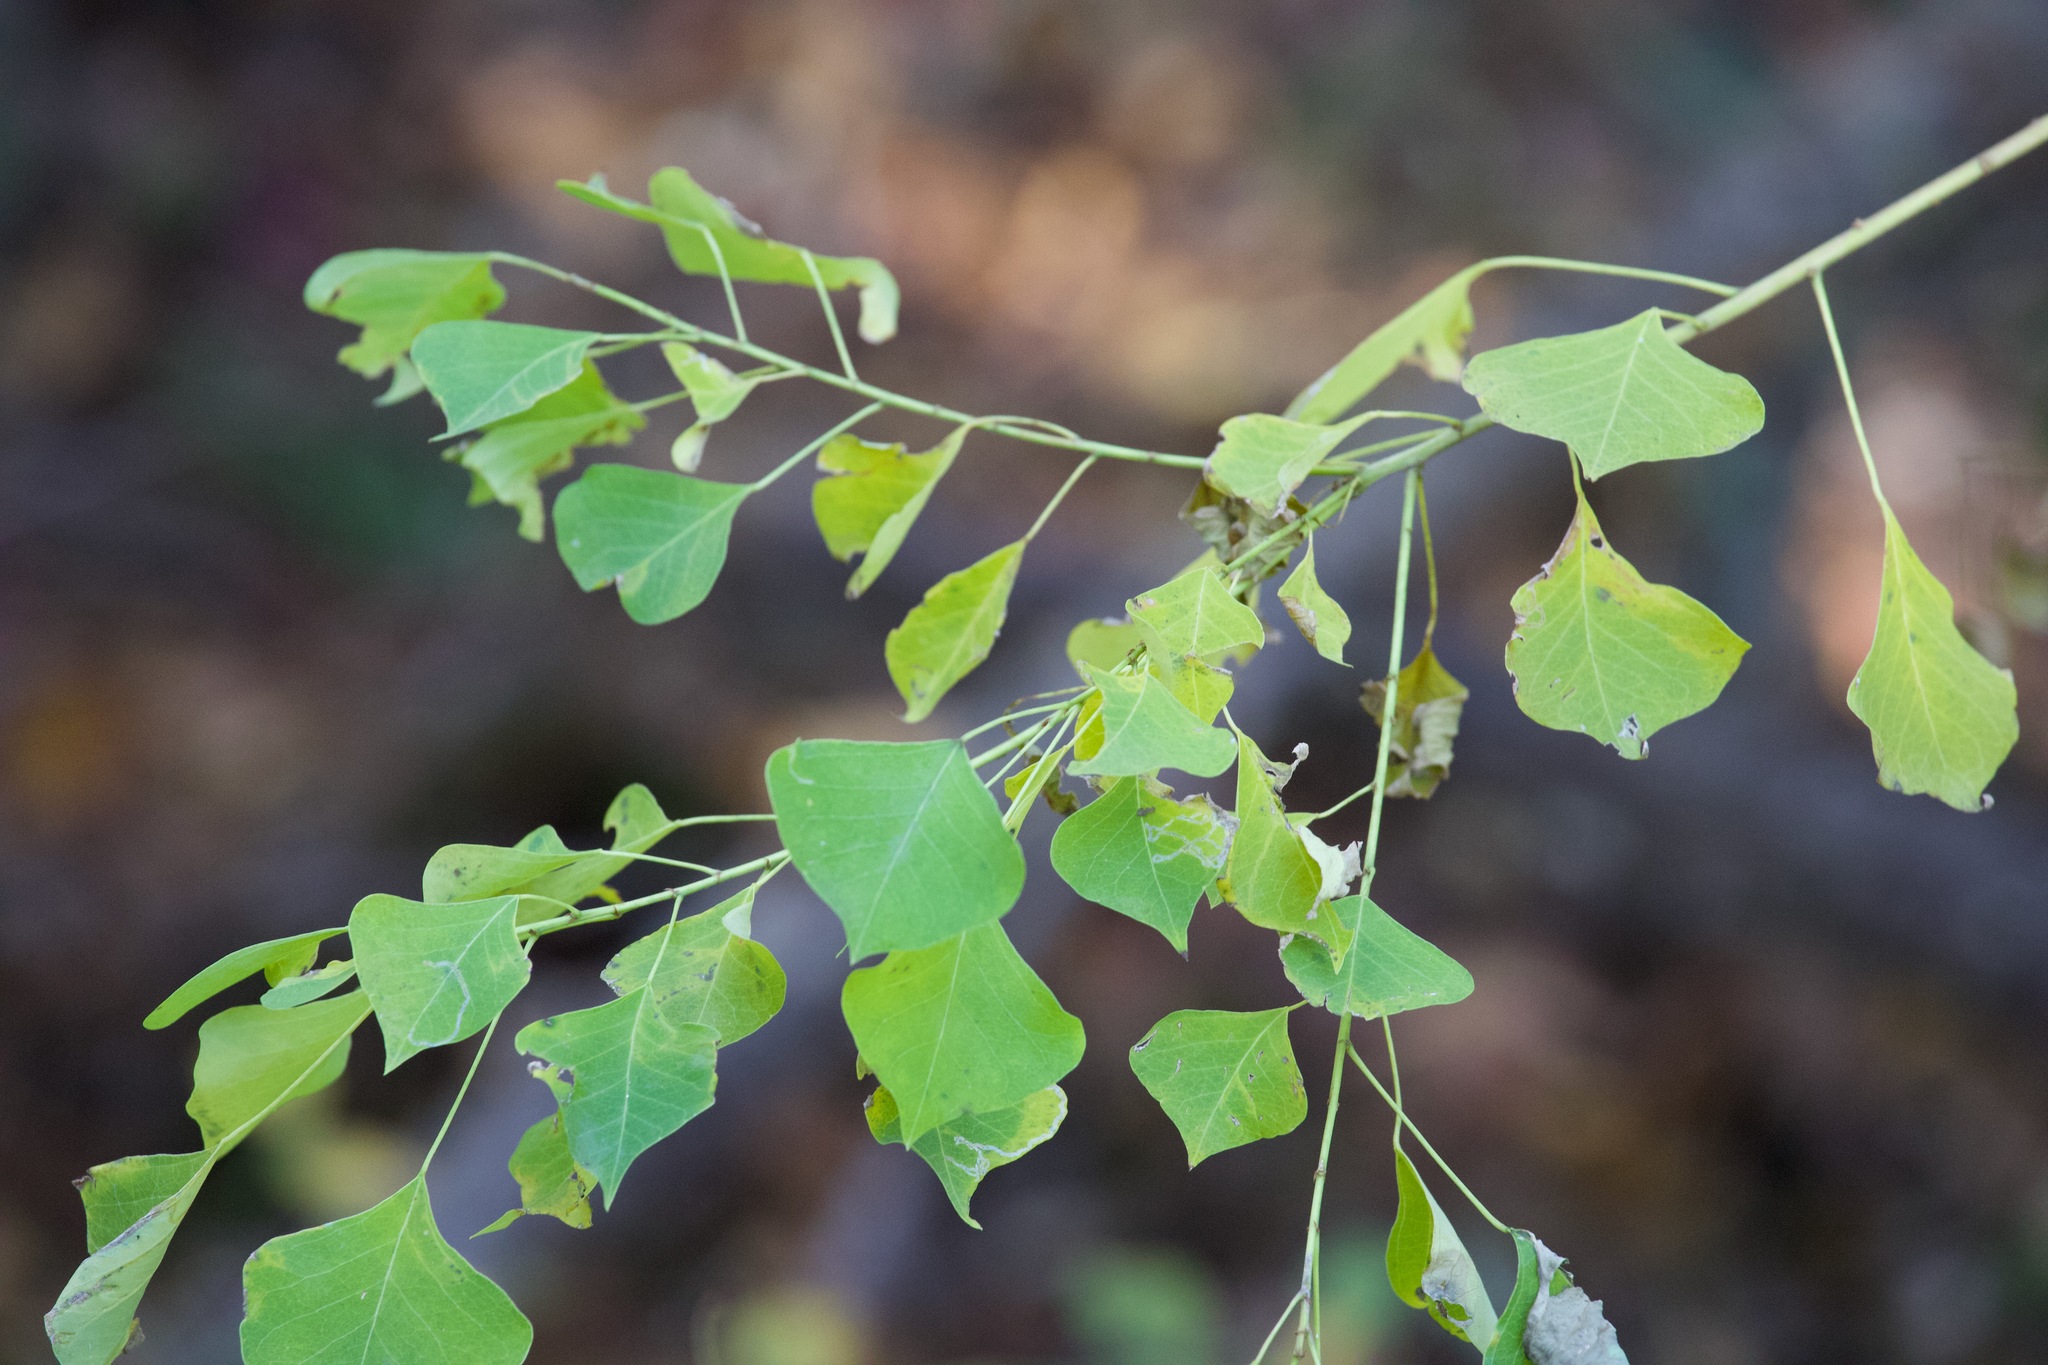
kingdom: Plantae
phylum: Tracheophyta
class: Magnoliopsida
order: Malpighiales
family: Euphorbiaceae
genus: Triadica
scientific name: Triadica sebifera
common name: Chinese tallow
